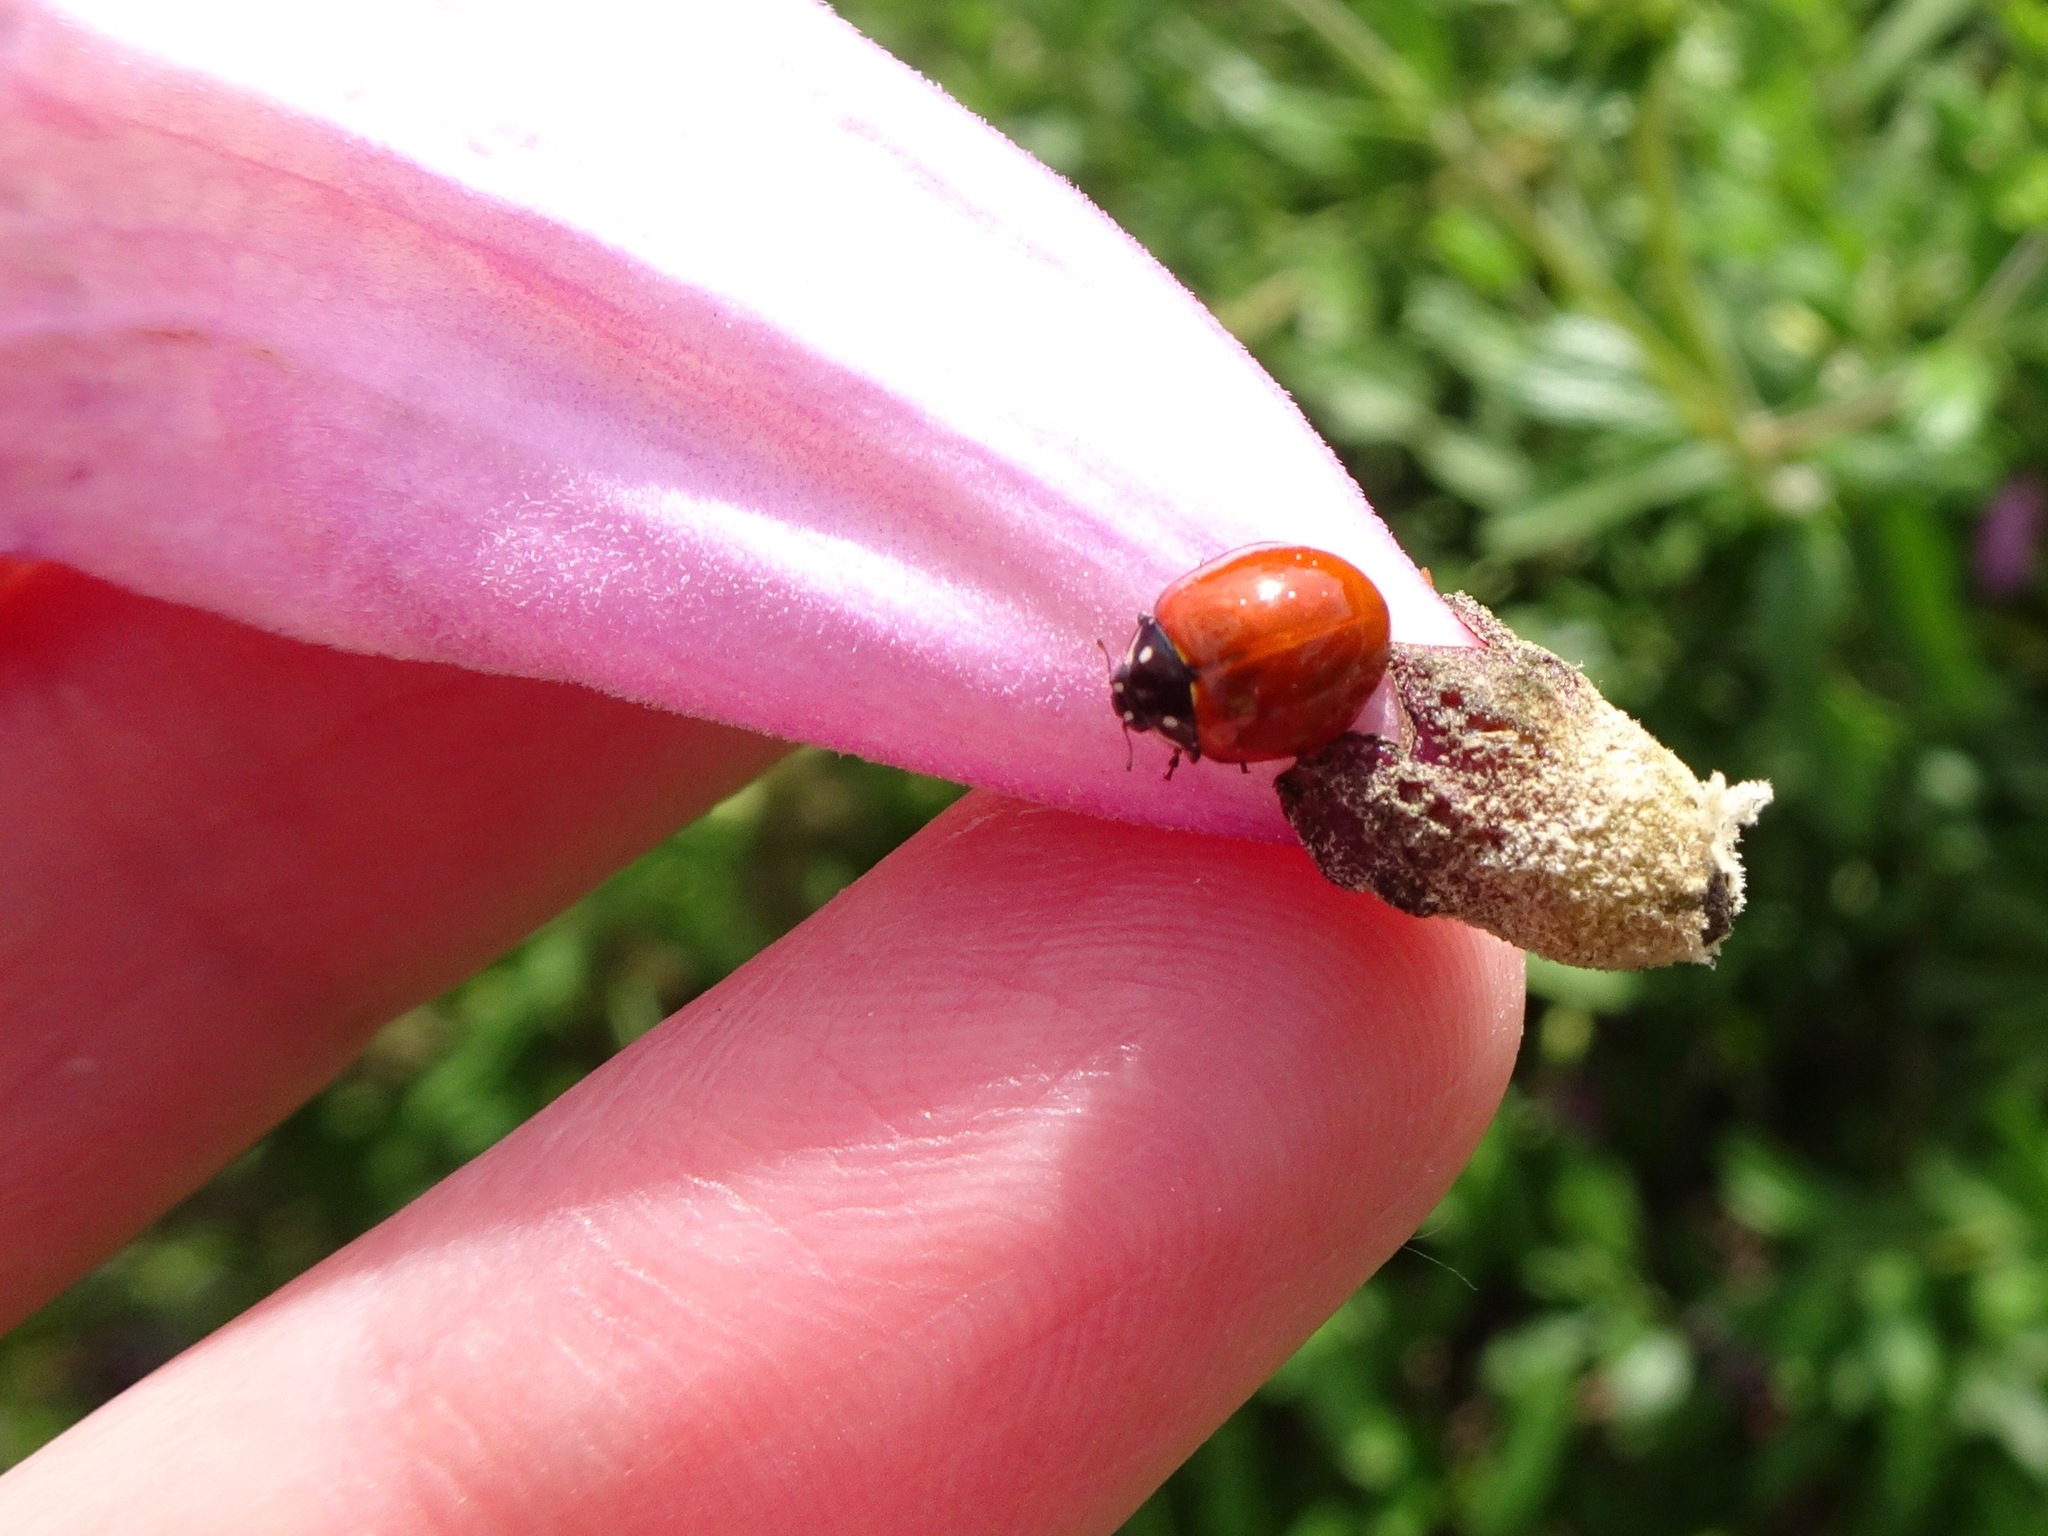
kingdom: Animalia
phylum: Arthropoda
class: Insecta
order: Coleoptera
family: Coccinellidae
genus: Cycloneda
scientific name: Cycloneda sanguinea
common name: Ladybird beetle
